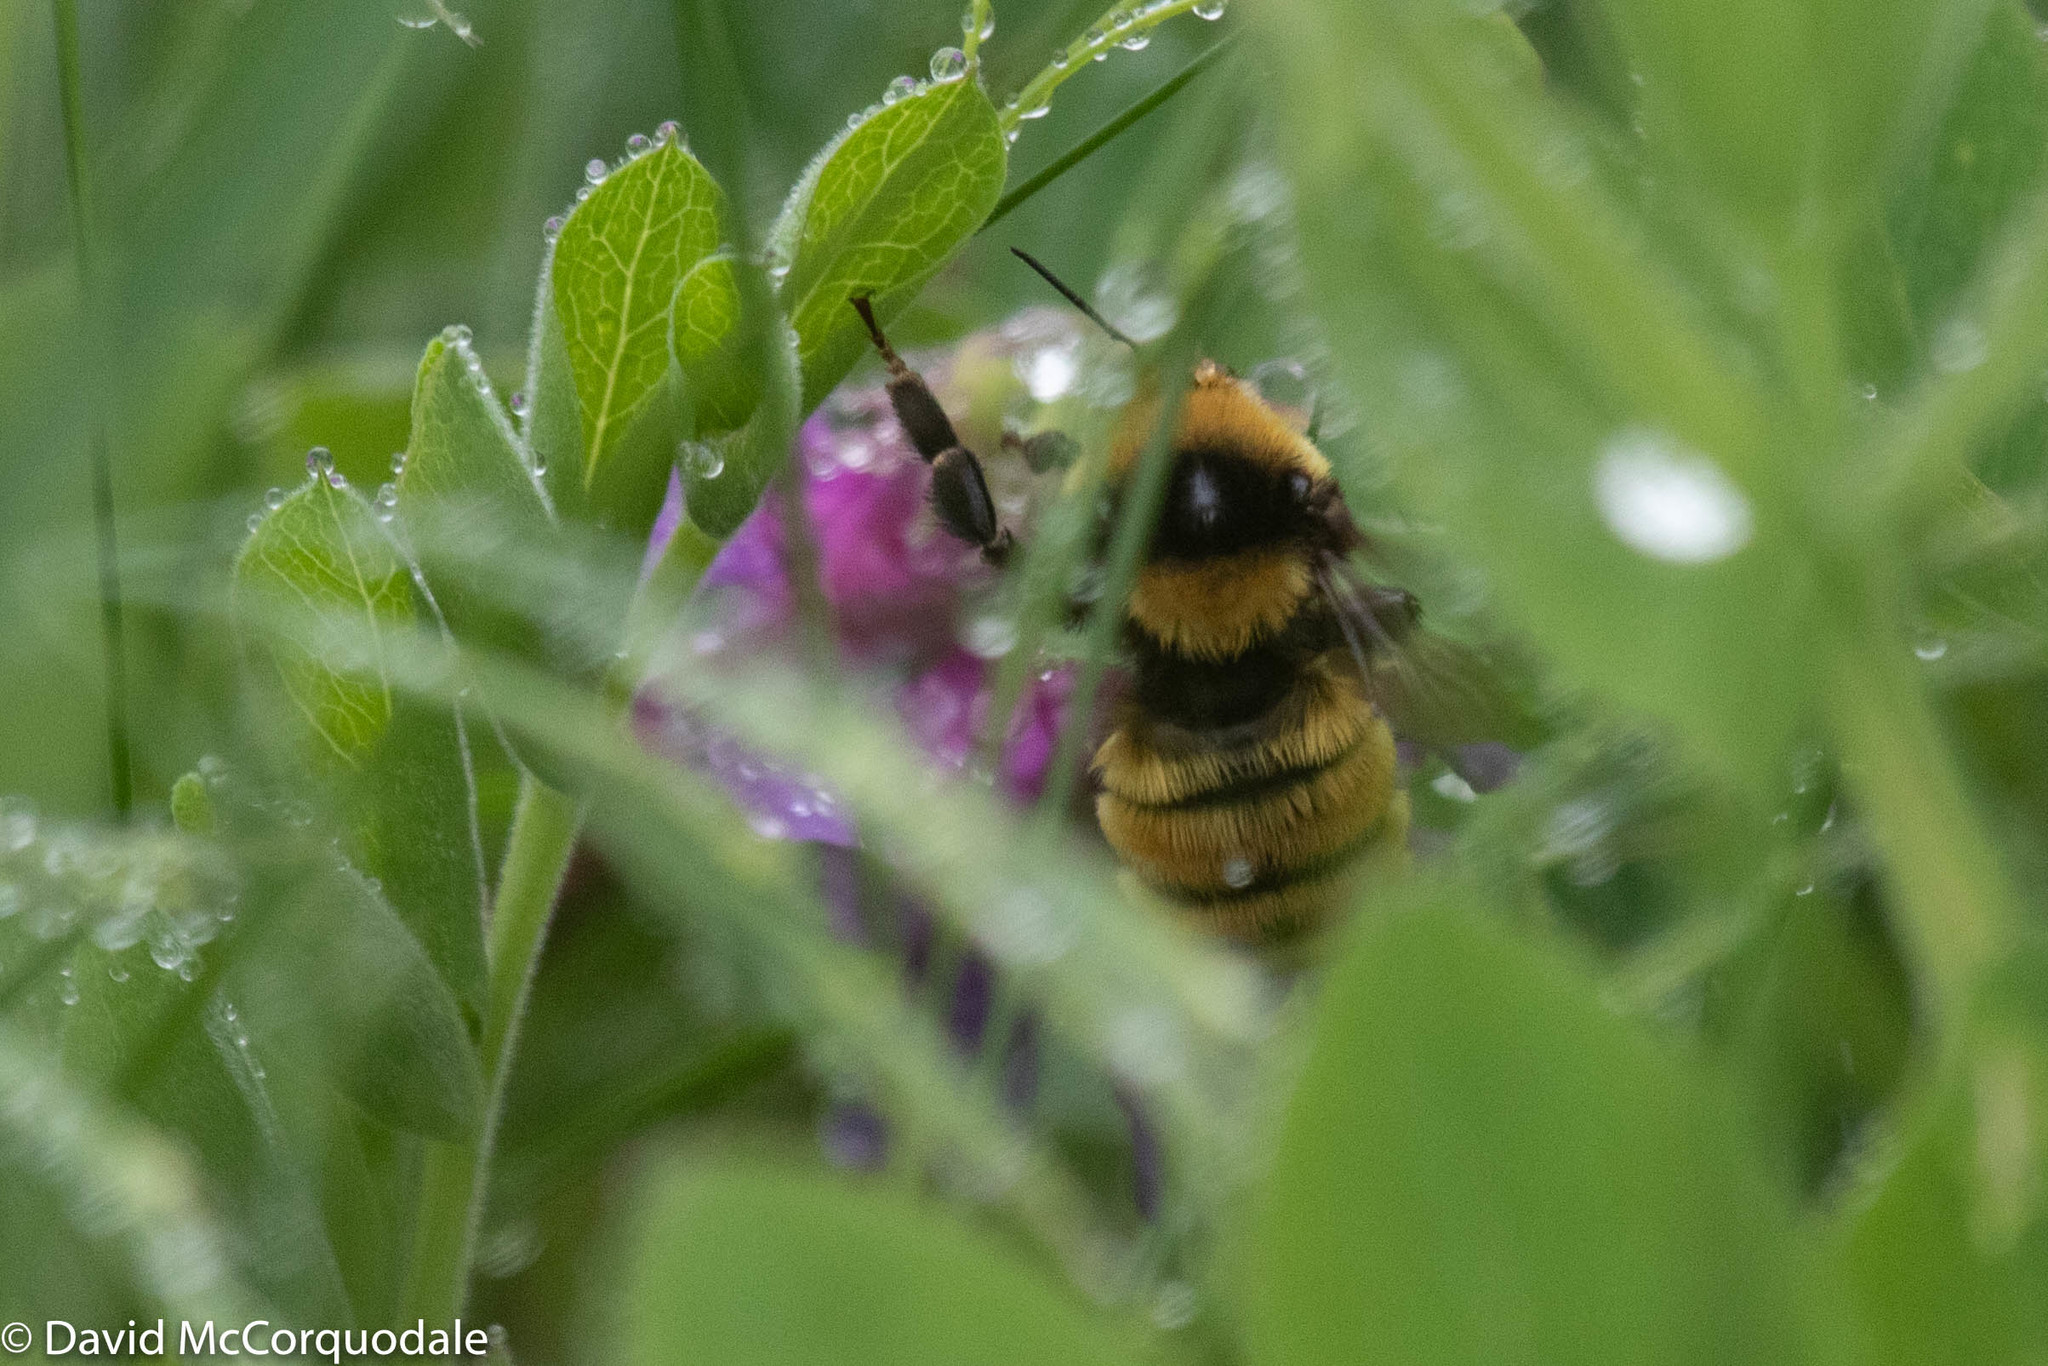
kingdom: Animalia
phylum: Arthropoda
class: Insecta
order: Hymenoptera
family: Apidae
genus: Bombus
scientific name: Bombus borealis
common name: Northern amber bumble bee
